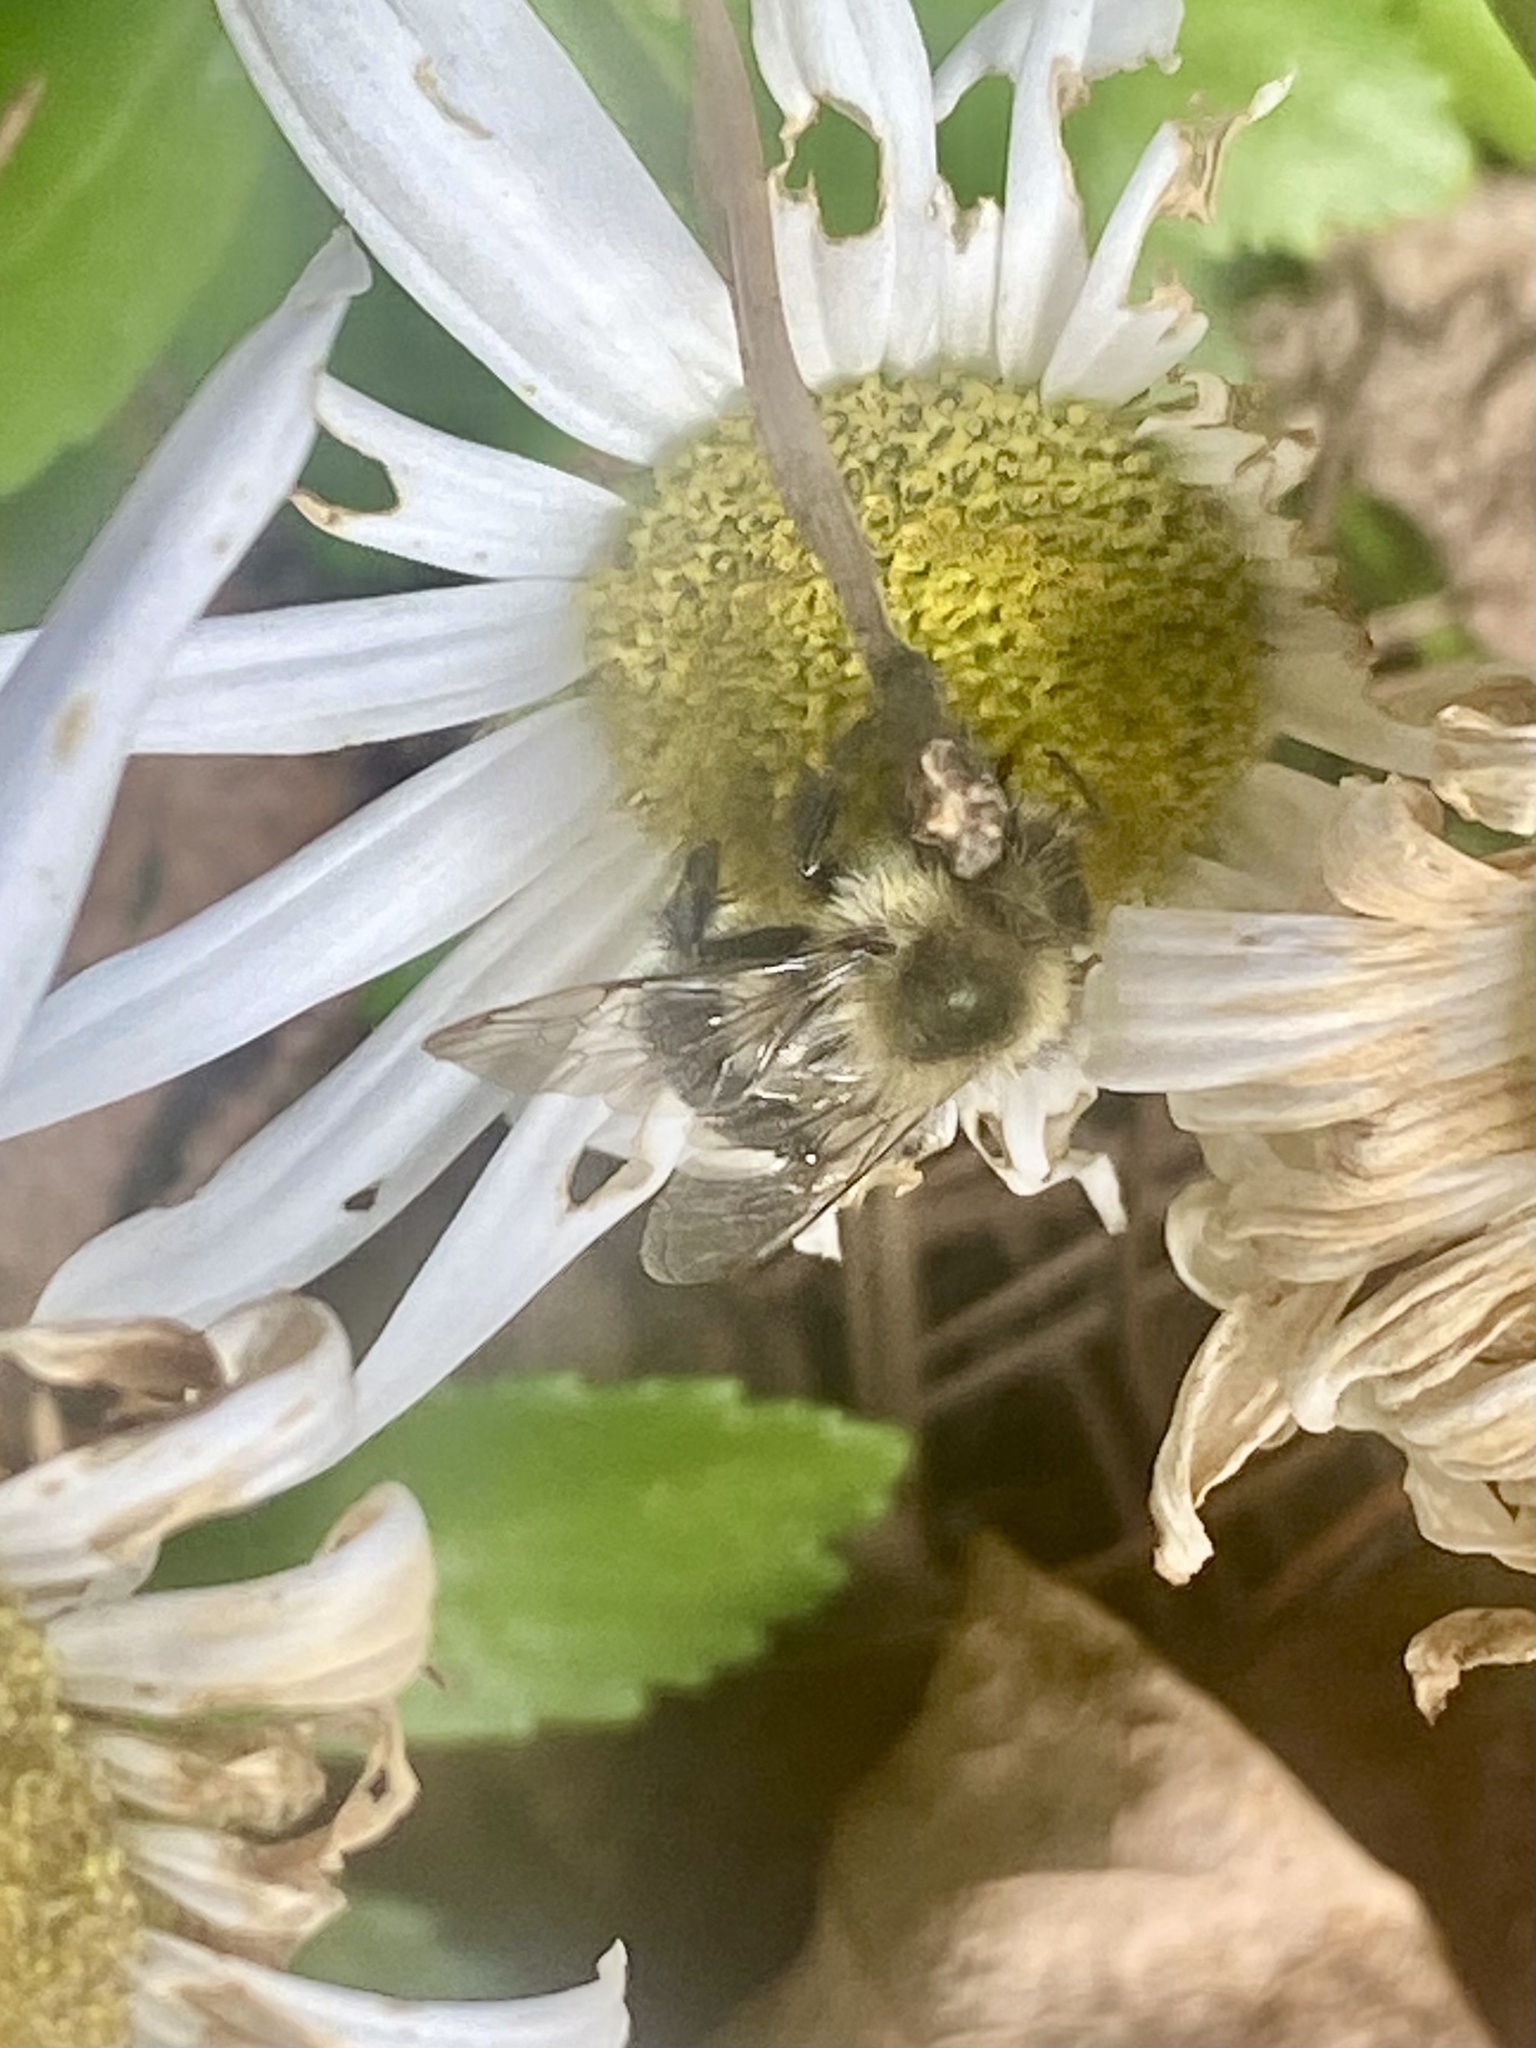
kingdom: Animalia
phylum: Arthropoda
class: Insecta
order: Hymenoptera
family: Apidae
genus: Bombus
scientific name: Bombus impatiens
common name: Common eastern bumble bee
